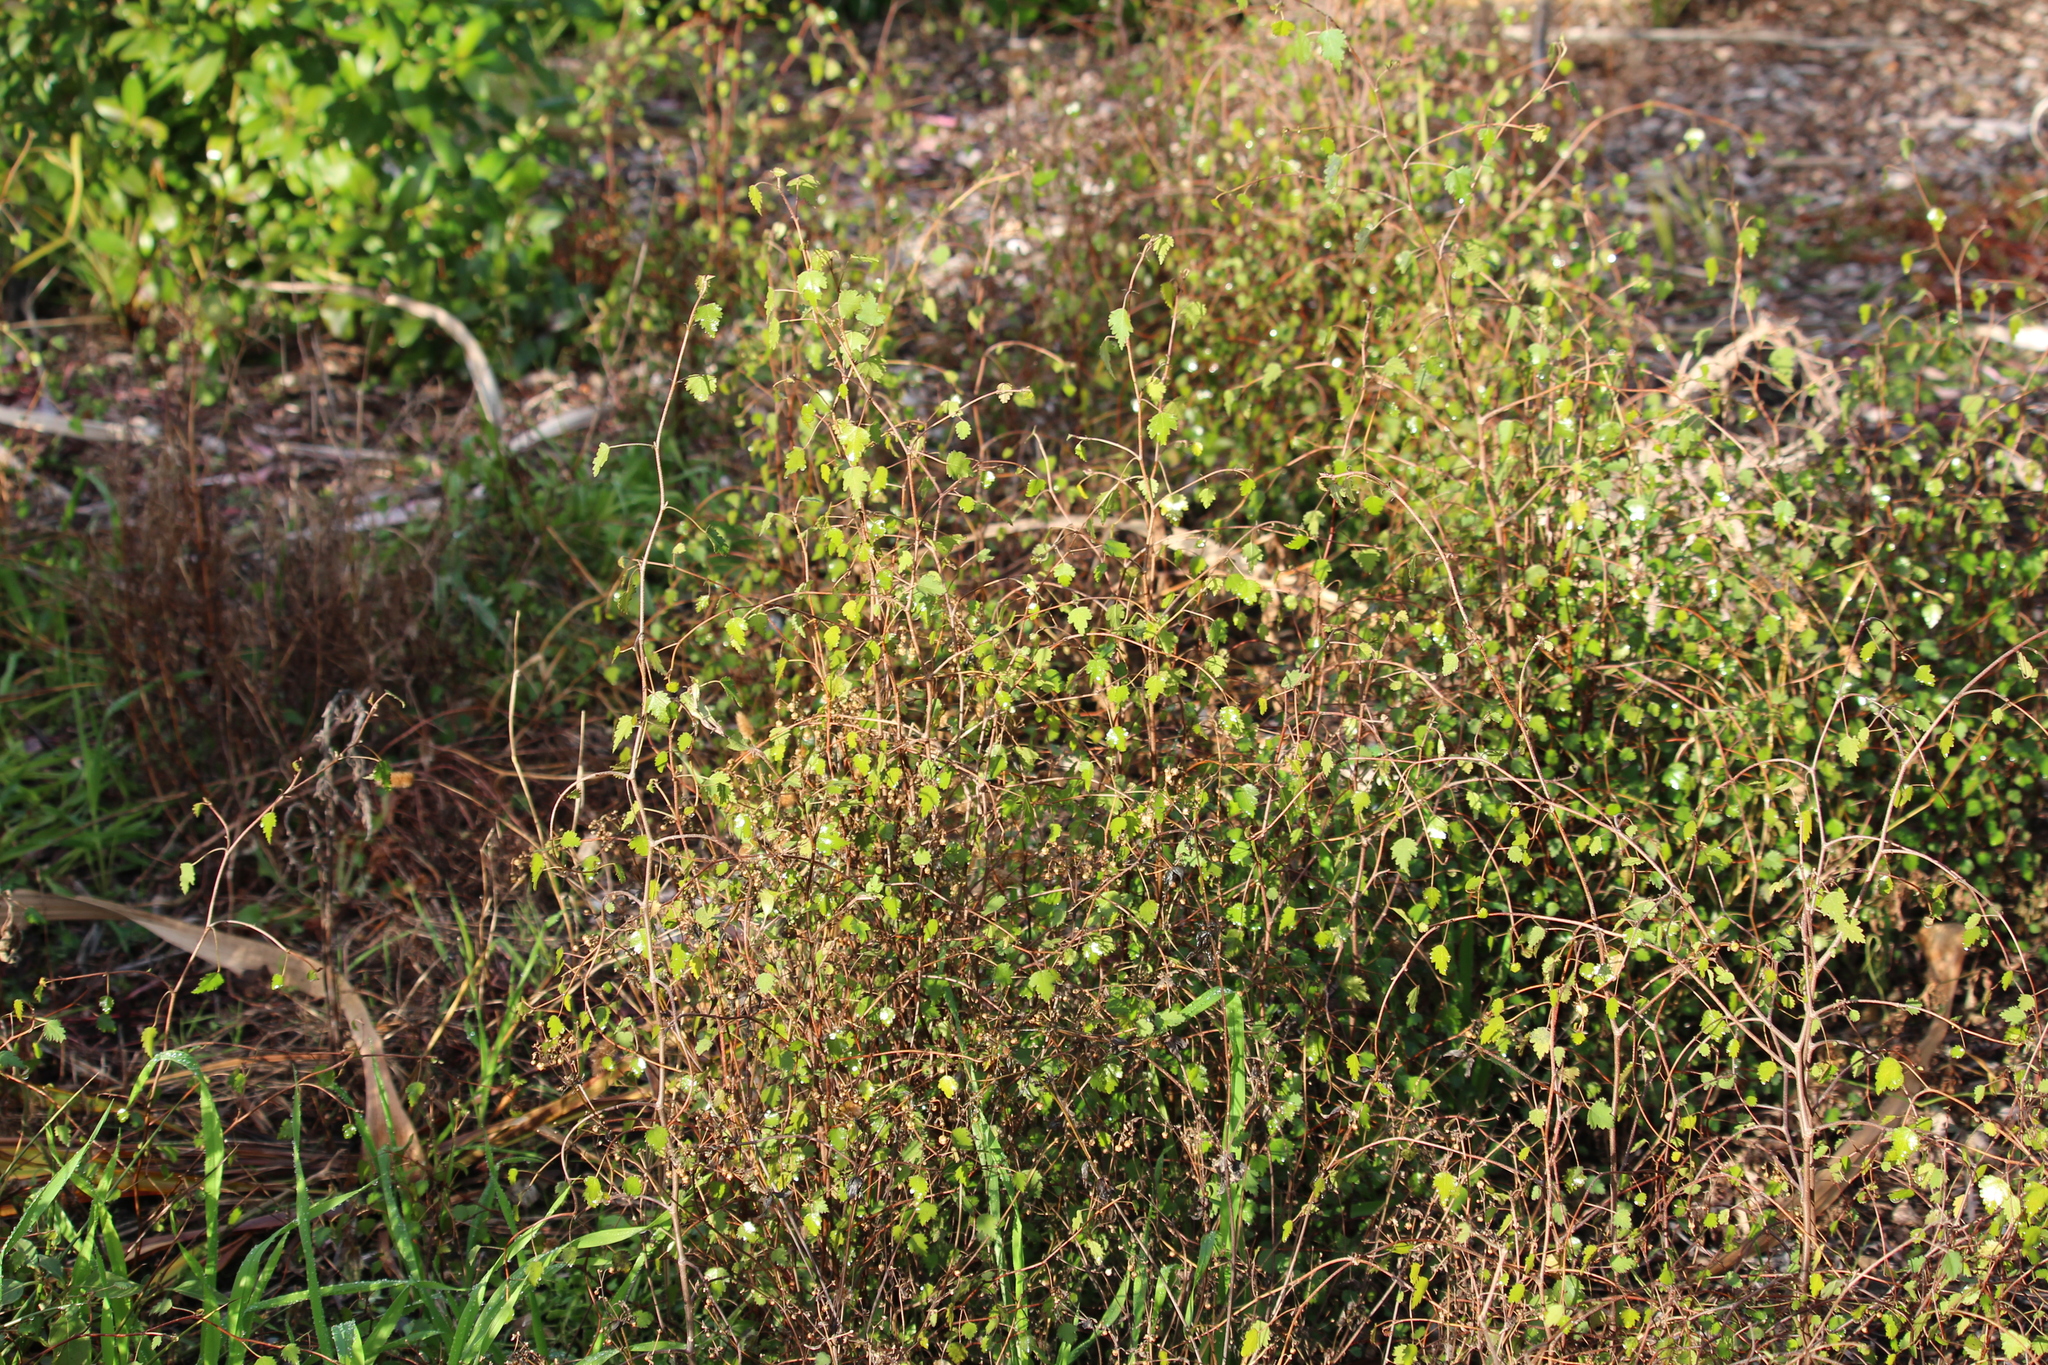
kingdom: Plantae
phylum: Tracheophyta
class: Magnoliopsida
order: Malvales
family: Malvaceae
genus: Plagianthus
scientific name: Plagianthus regius
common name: Manatu
